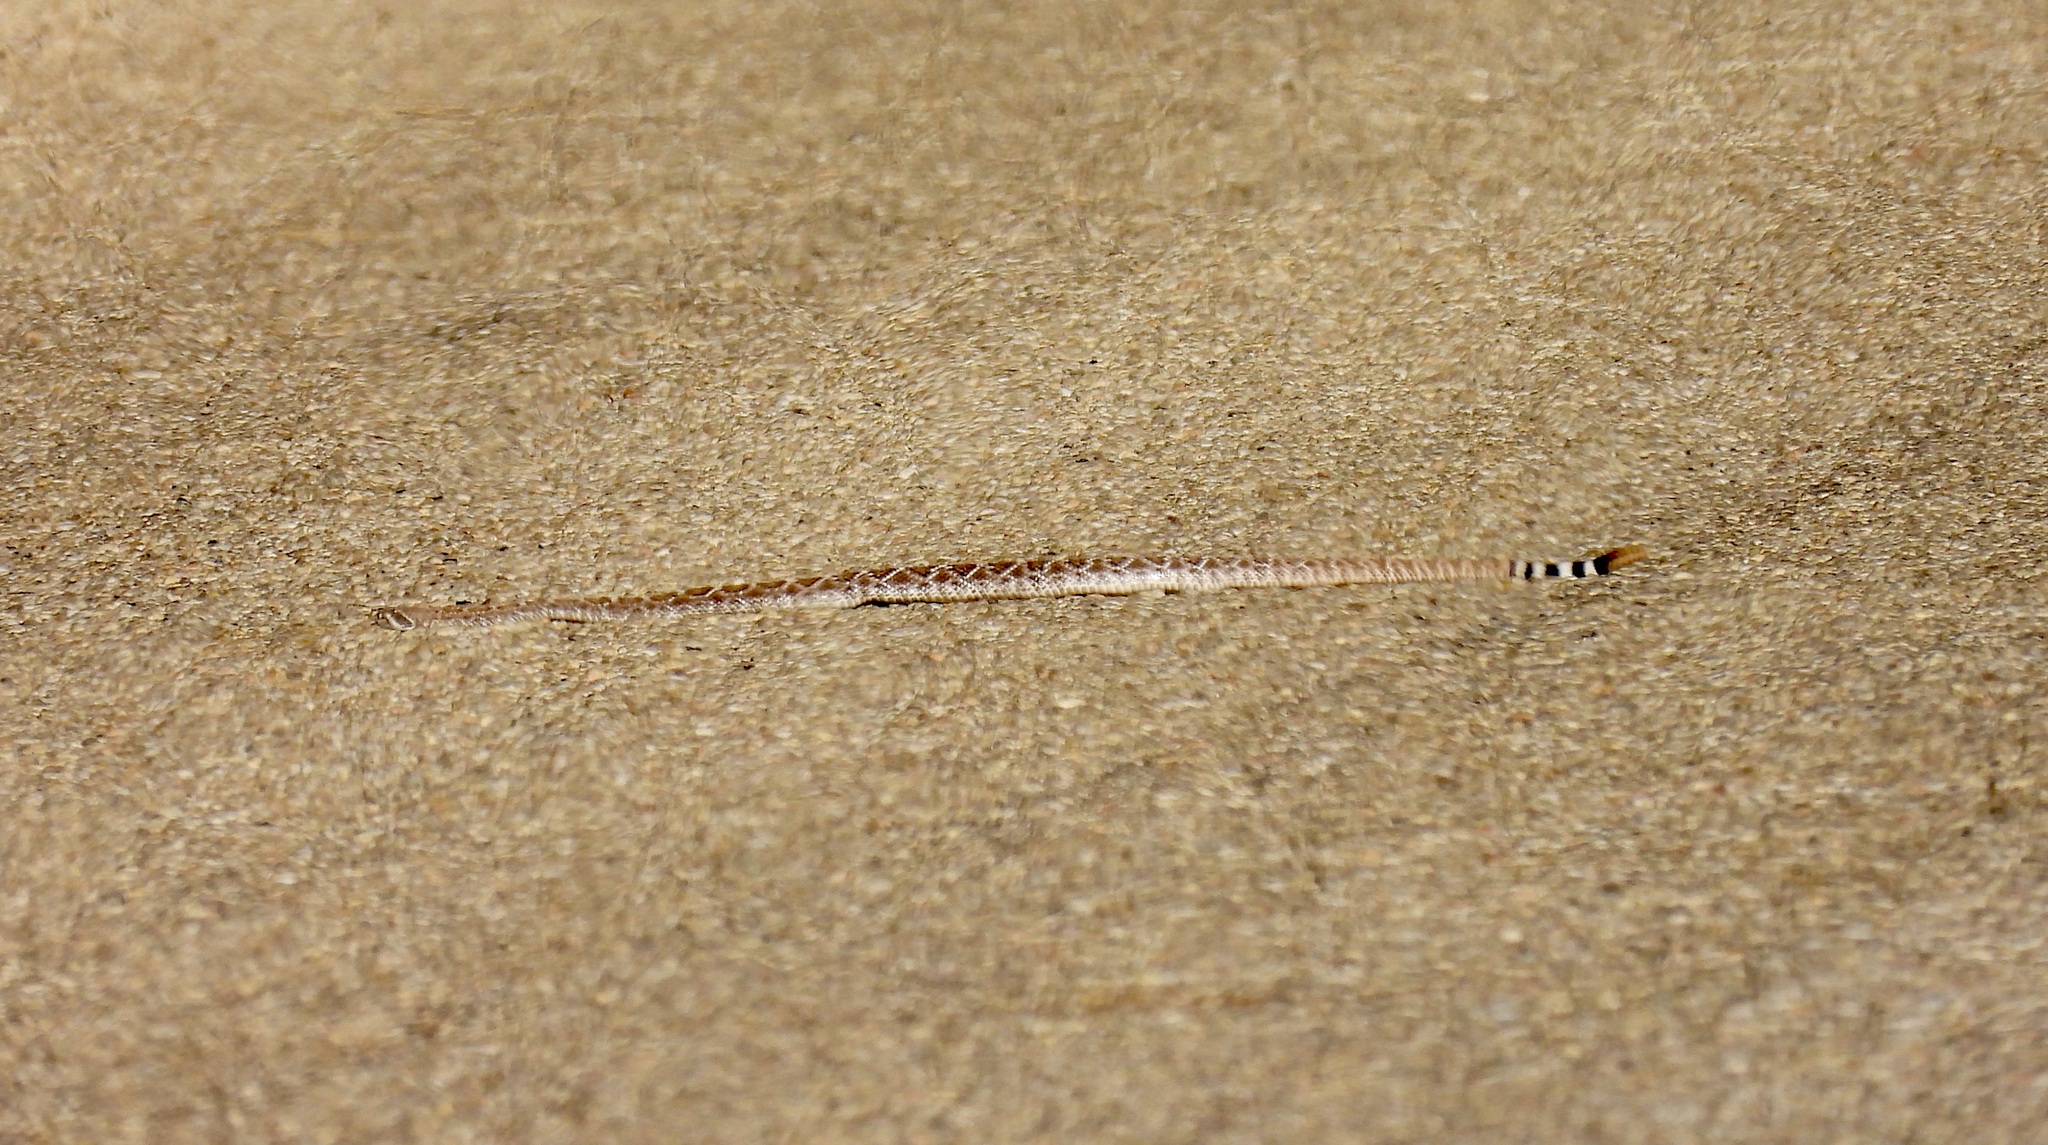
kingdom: Animalia
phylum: Chordata
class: Squamata
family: Viperidae
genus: Crotalus
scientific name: Crotalus atrox
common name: Western diamond-backed rattlesnake
